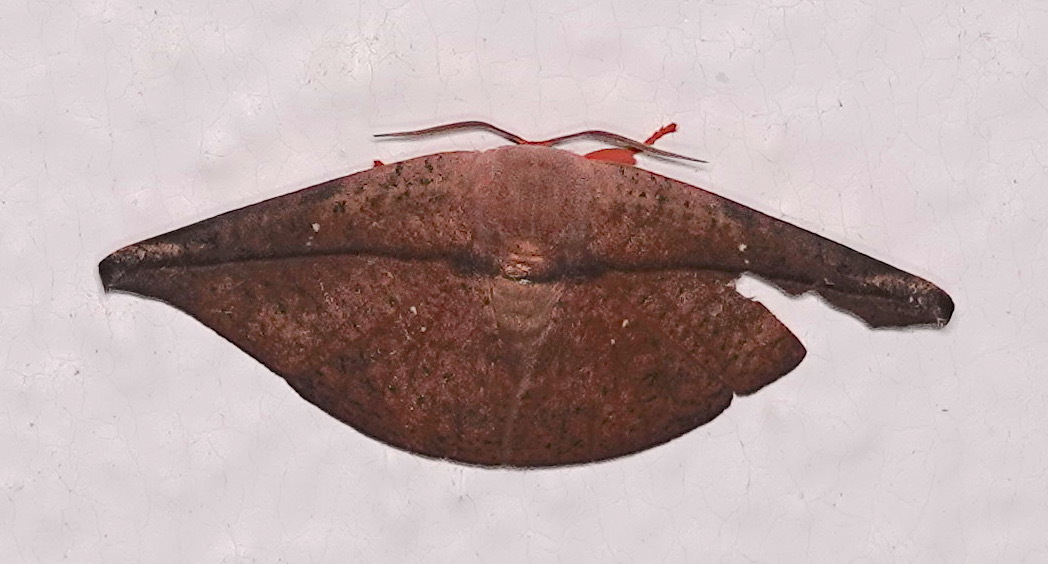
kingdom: Animalia
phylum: Arthropoda
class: Insecta
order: Lepidoptera
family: Drepanidae
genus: Oreta
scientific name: Oreta perobliquilinea
